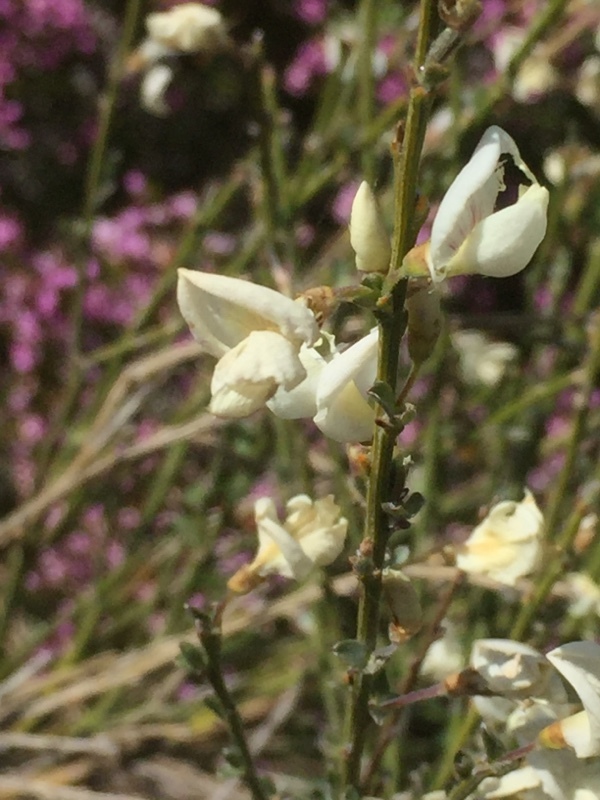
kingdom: Plantae
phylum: Tracheophyta
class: Magnoliopsida
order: Fabales
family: Fabaceae
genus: Cytisus
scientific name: Cytisus multiflorus
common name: White broom
